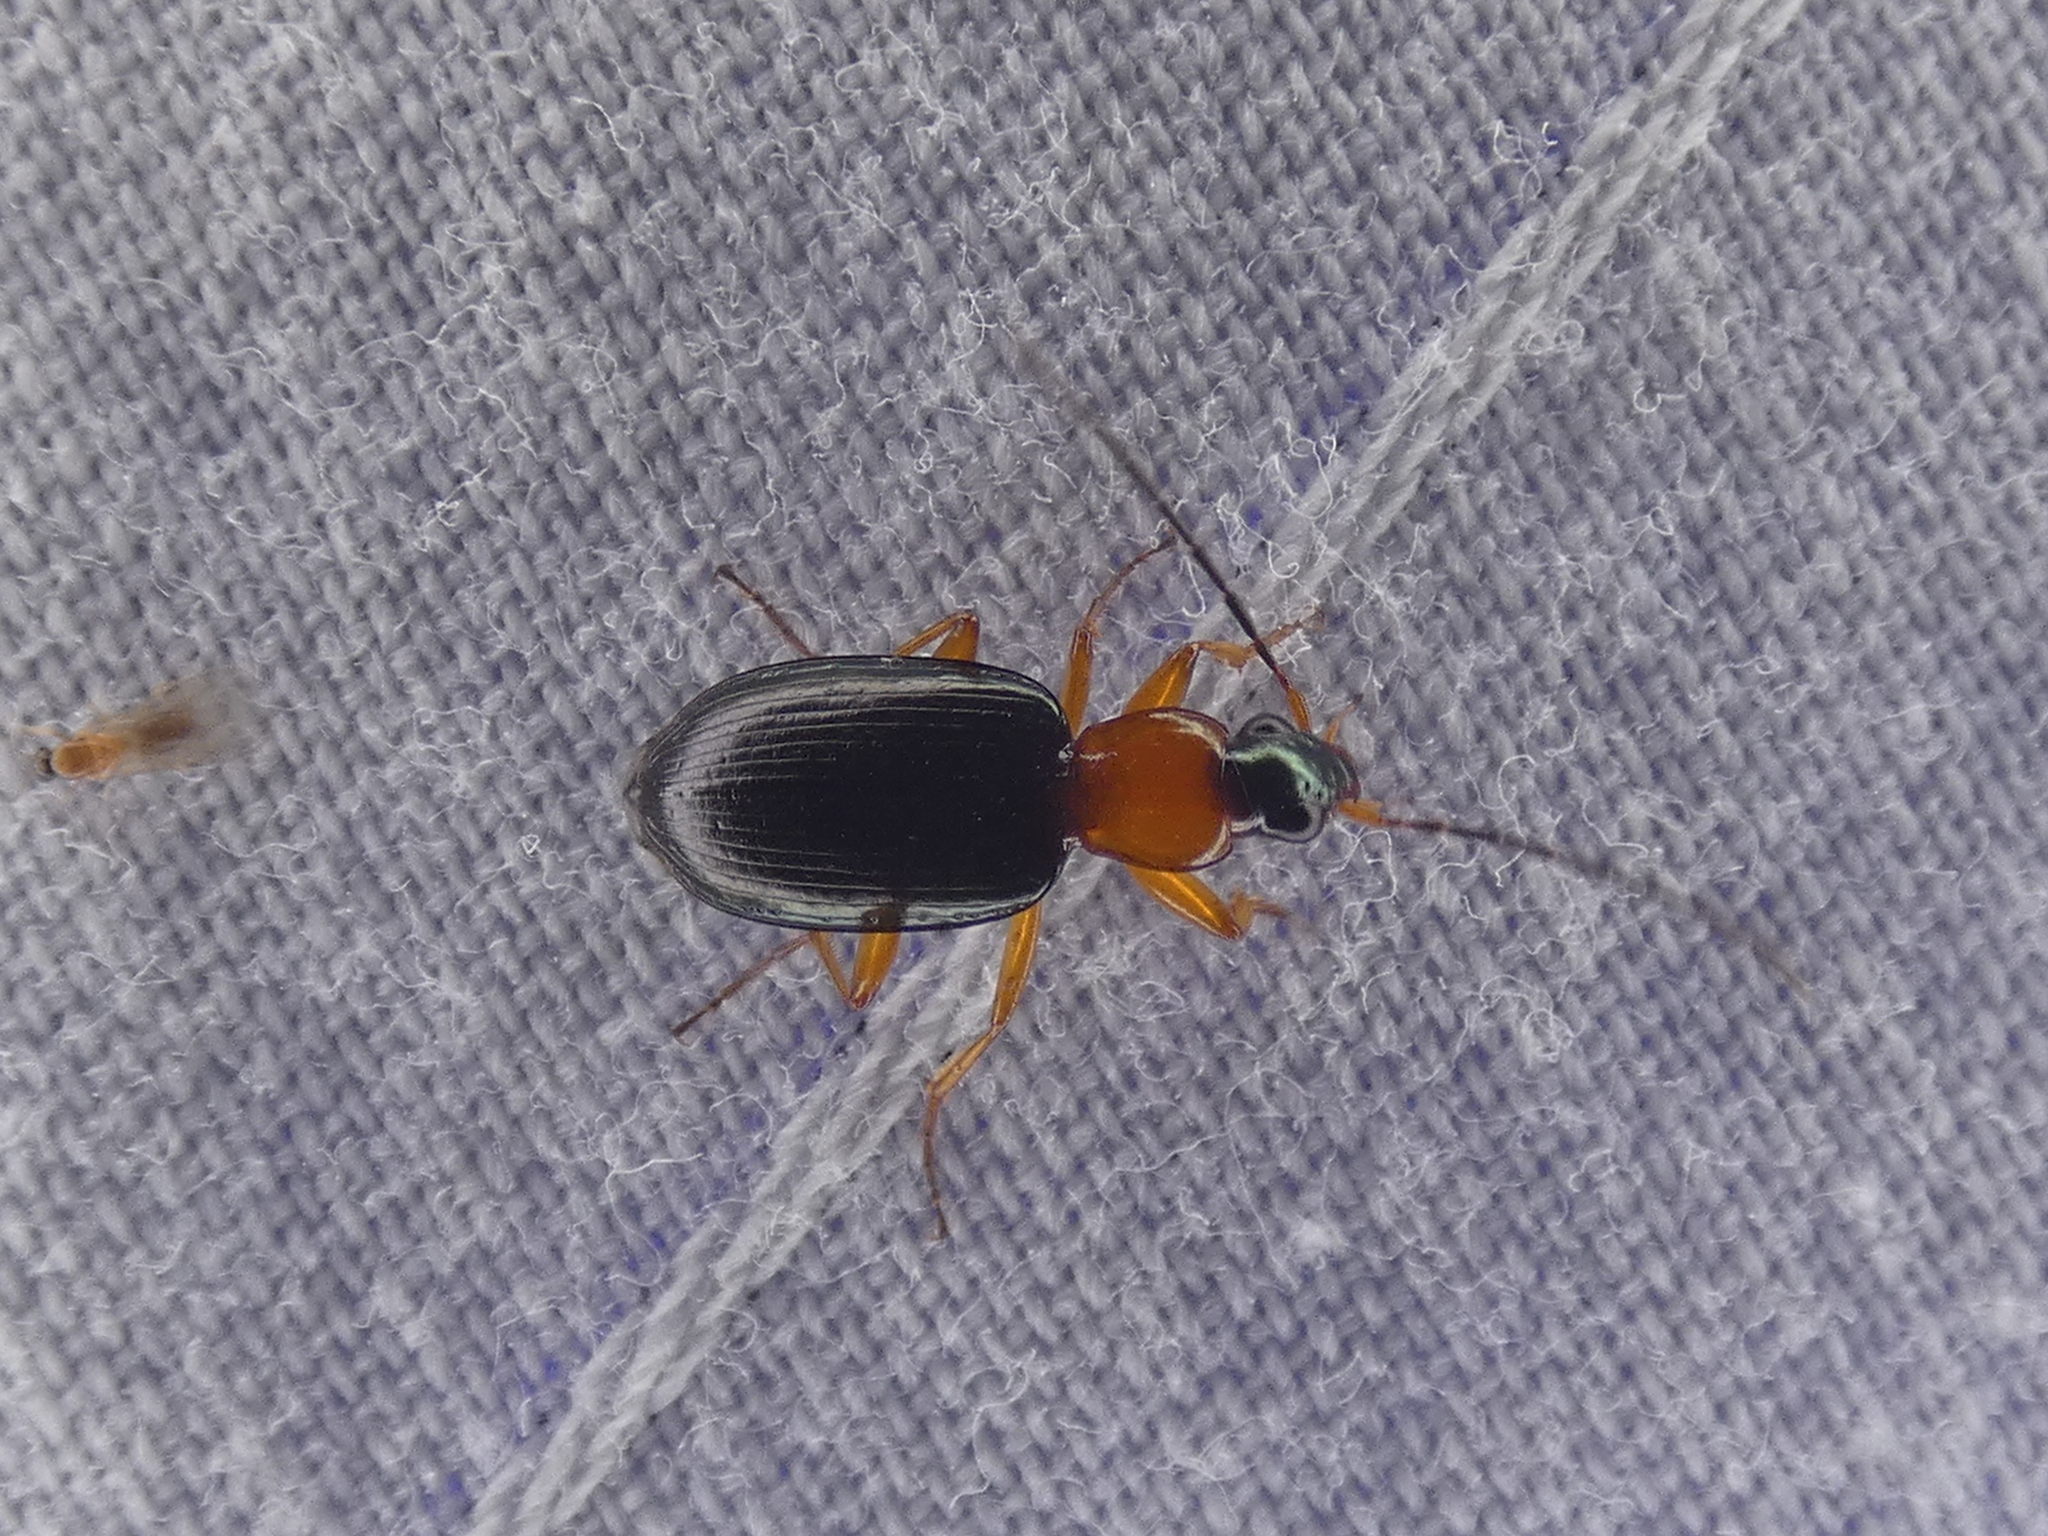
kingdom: Animalia
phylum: Arthropoda
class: Insecta
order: Coleoptera
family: Carabidae
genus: Agonum
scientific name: Agonum decorum
